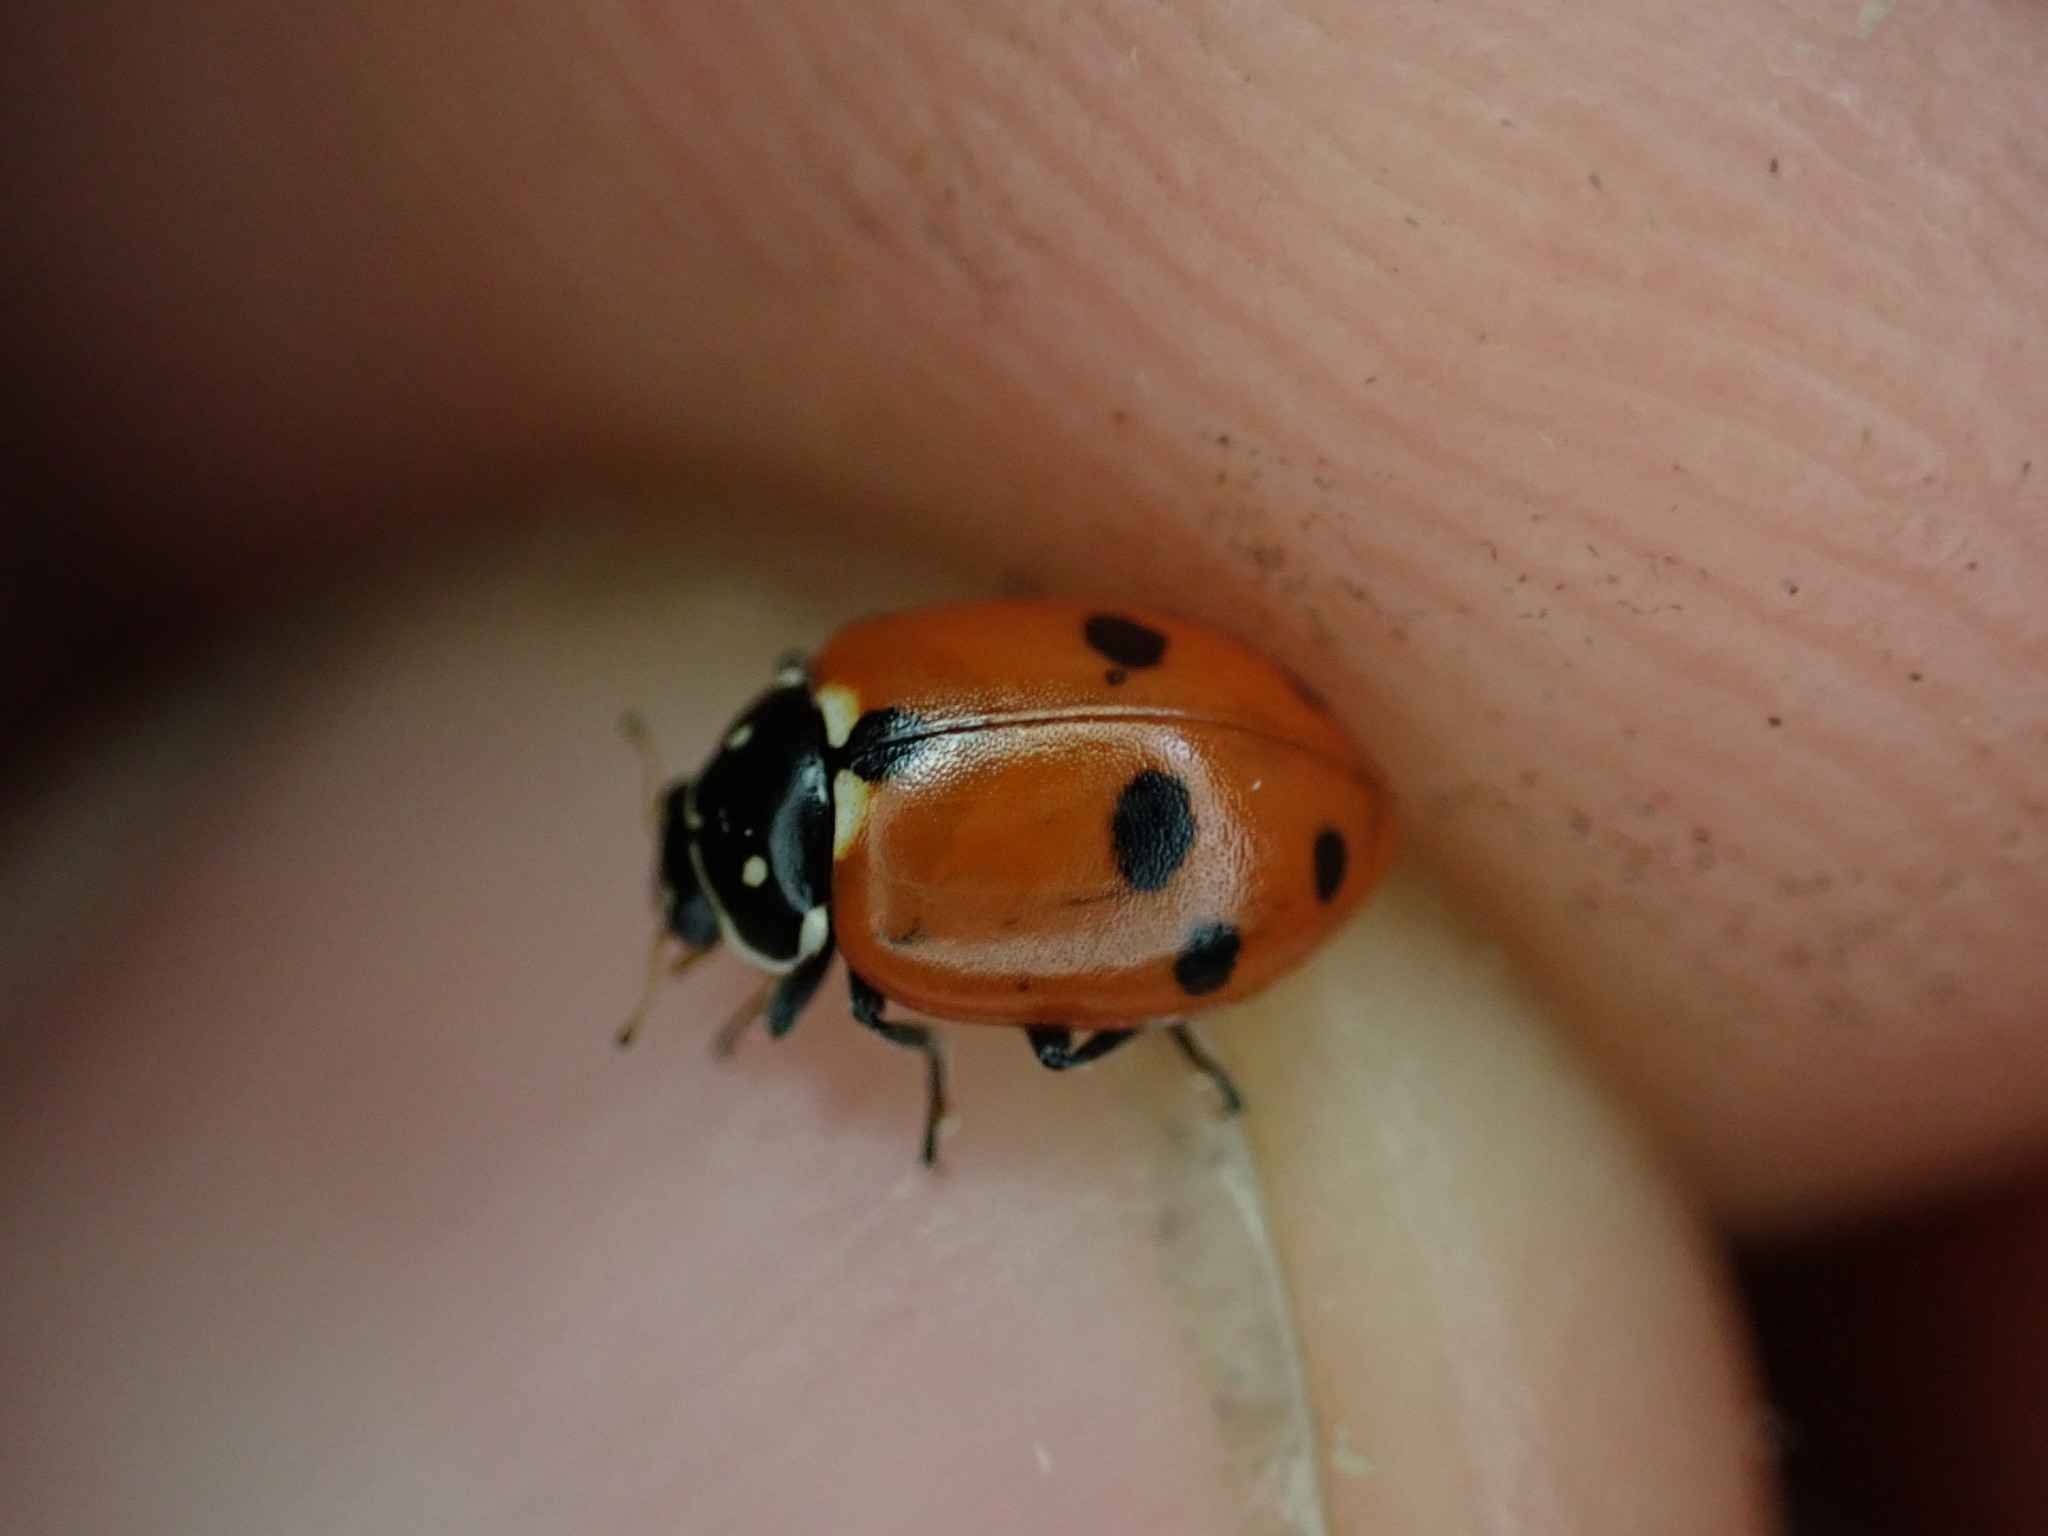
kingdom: Animalia
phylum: Arthropoda
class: Insecta
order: Coleoptera
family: Coccinellidae
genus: Hippodamia
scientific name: Hippodamia variegata
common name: Ladybird beetle
